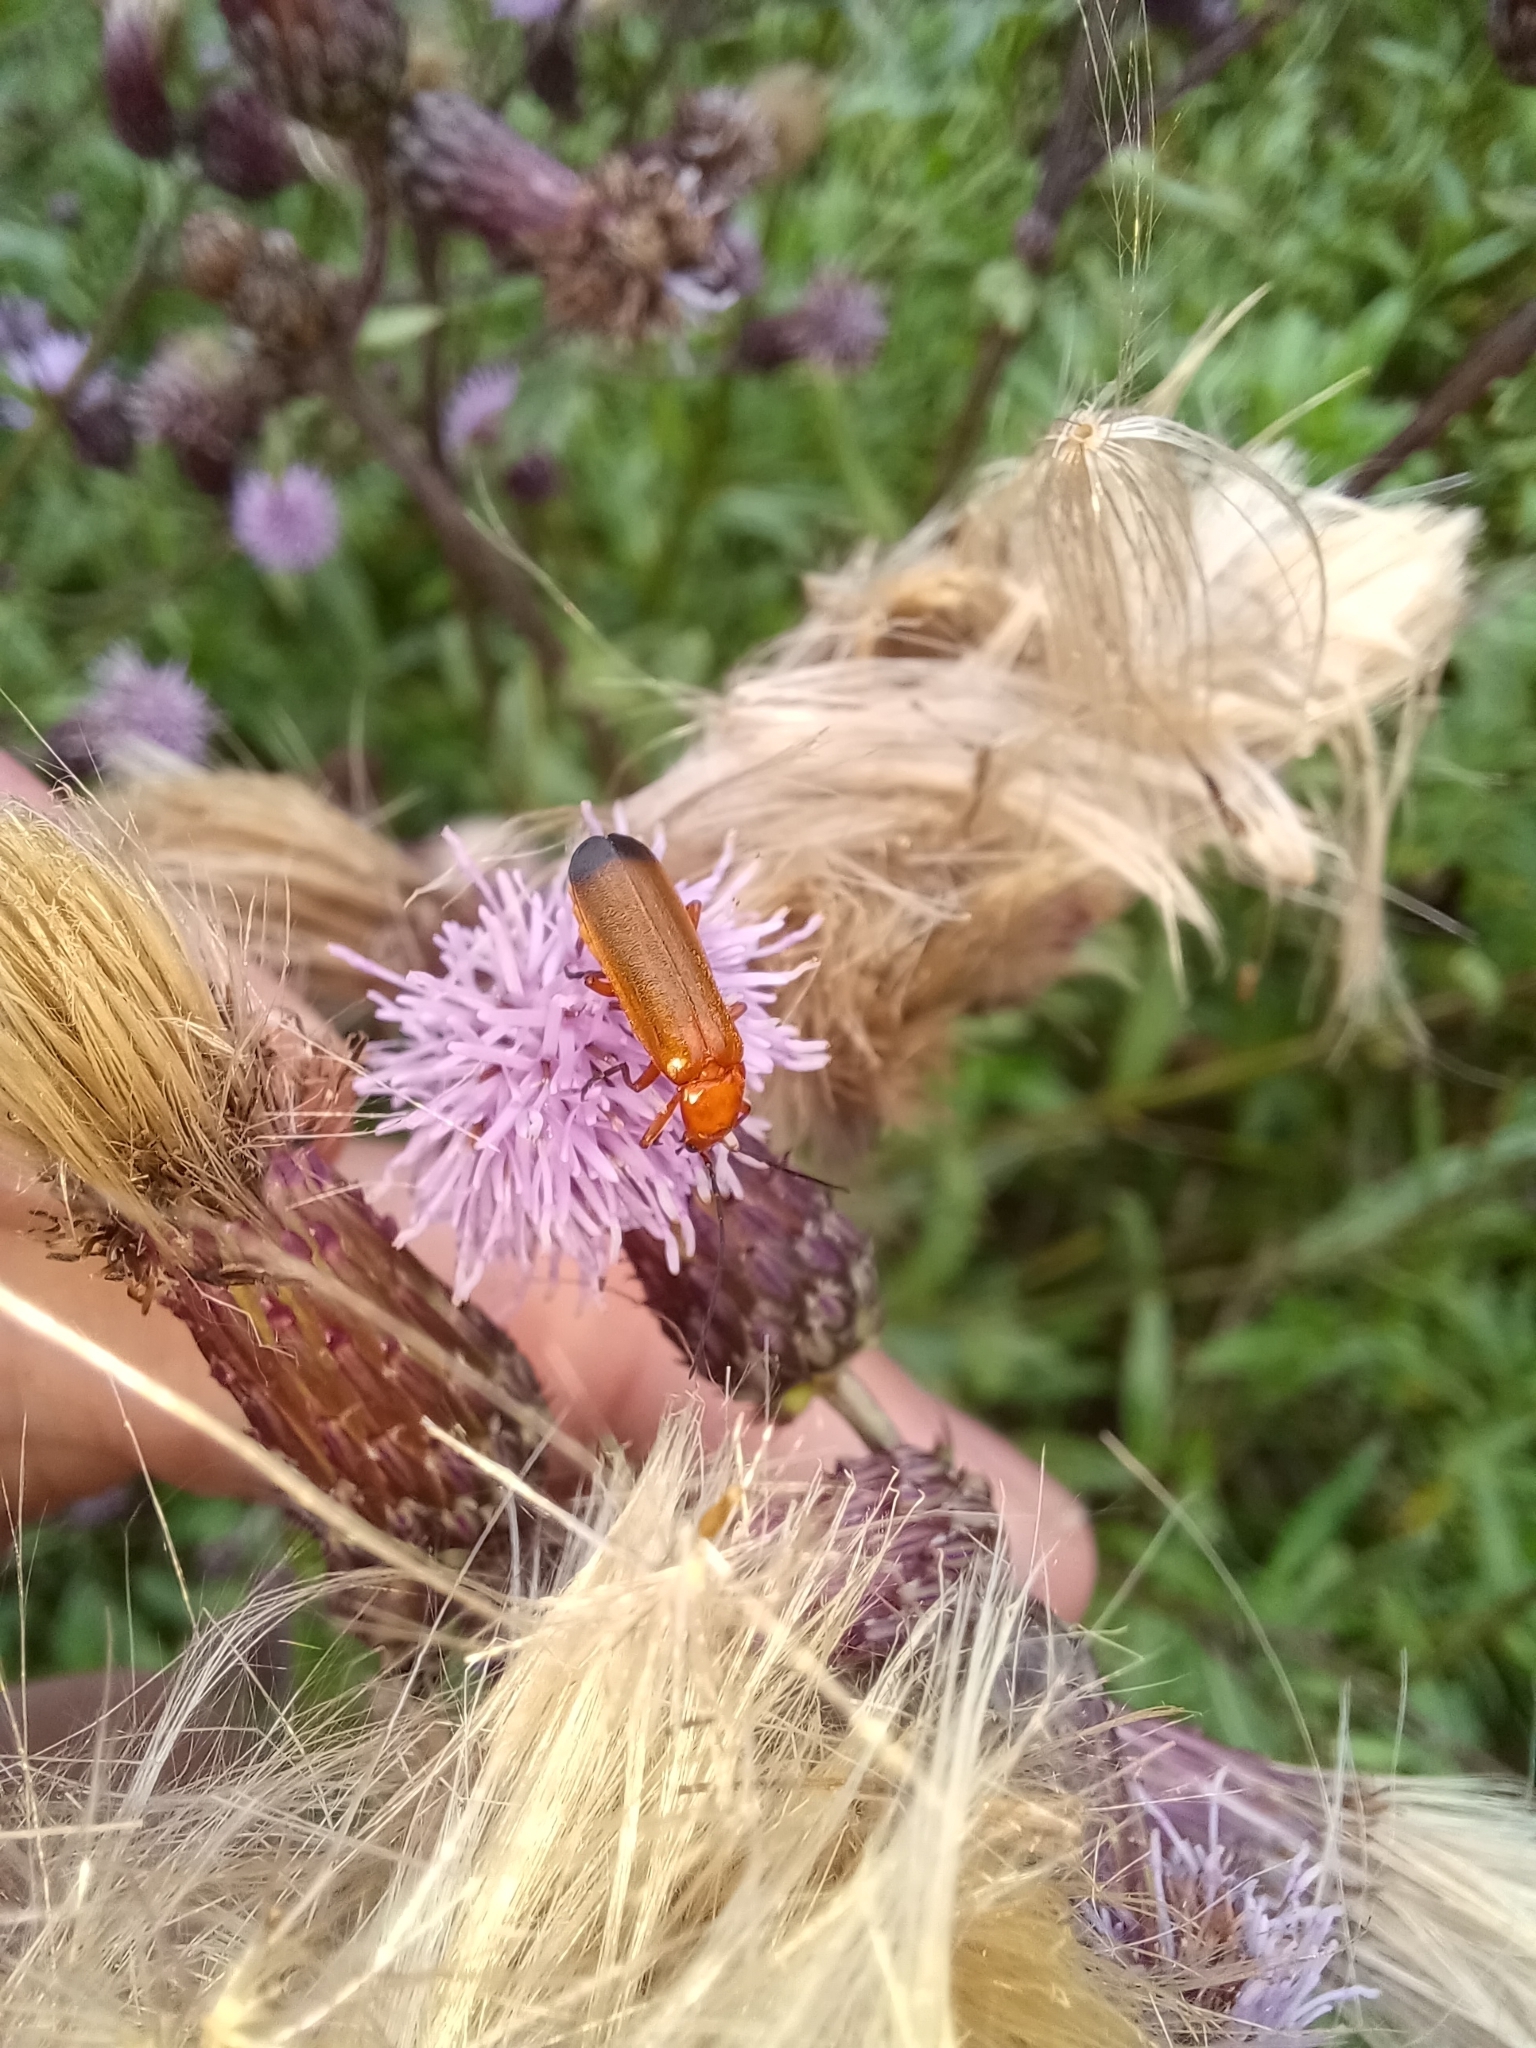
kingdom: Animalia
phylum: Arthropoda
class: Insecta
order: Coleoptera
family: Cantharidae
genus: Rhagonycha
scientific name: Rhagonycha fulva
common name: Common red soldier beetle
